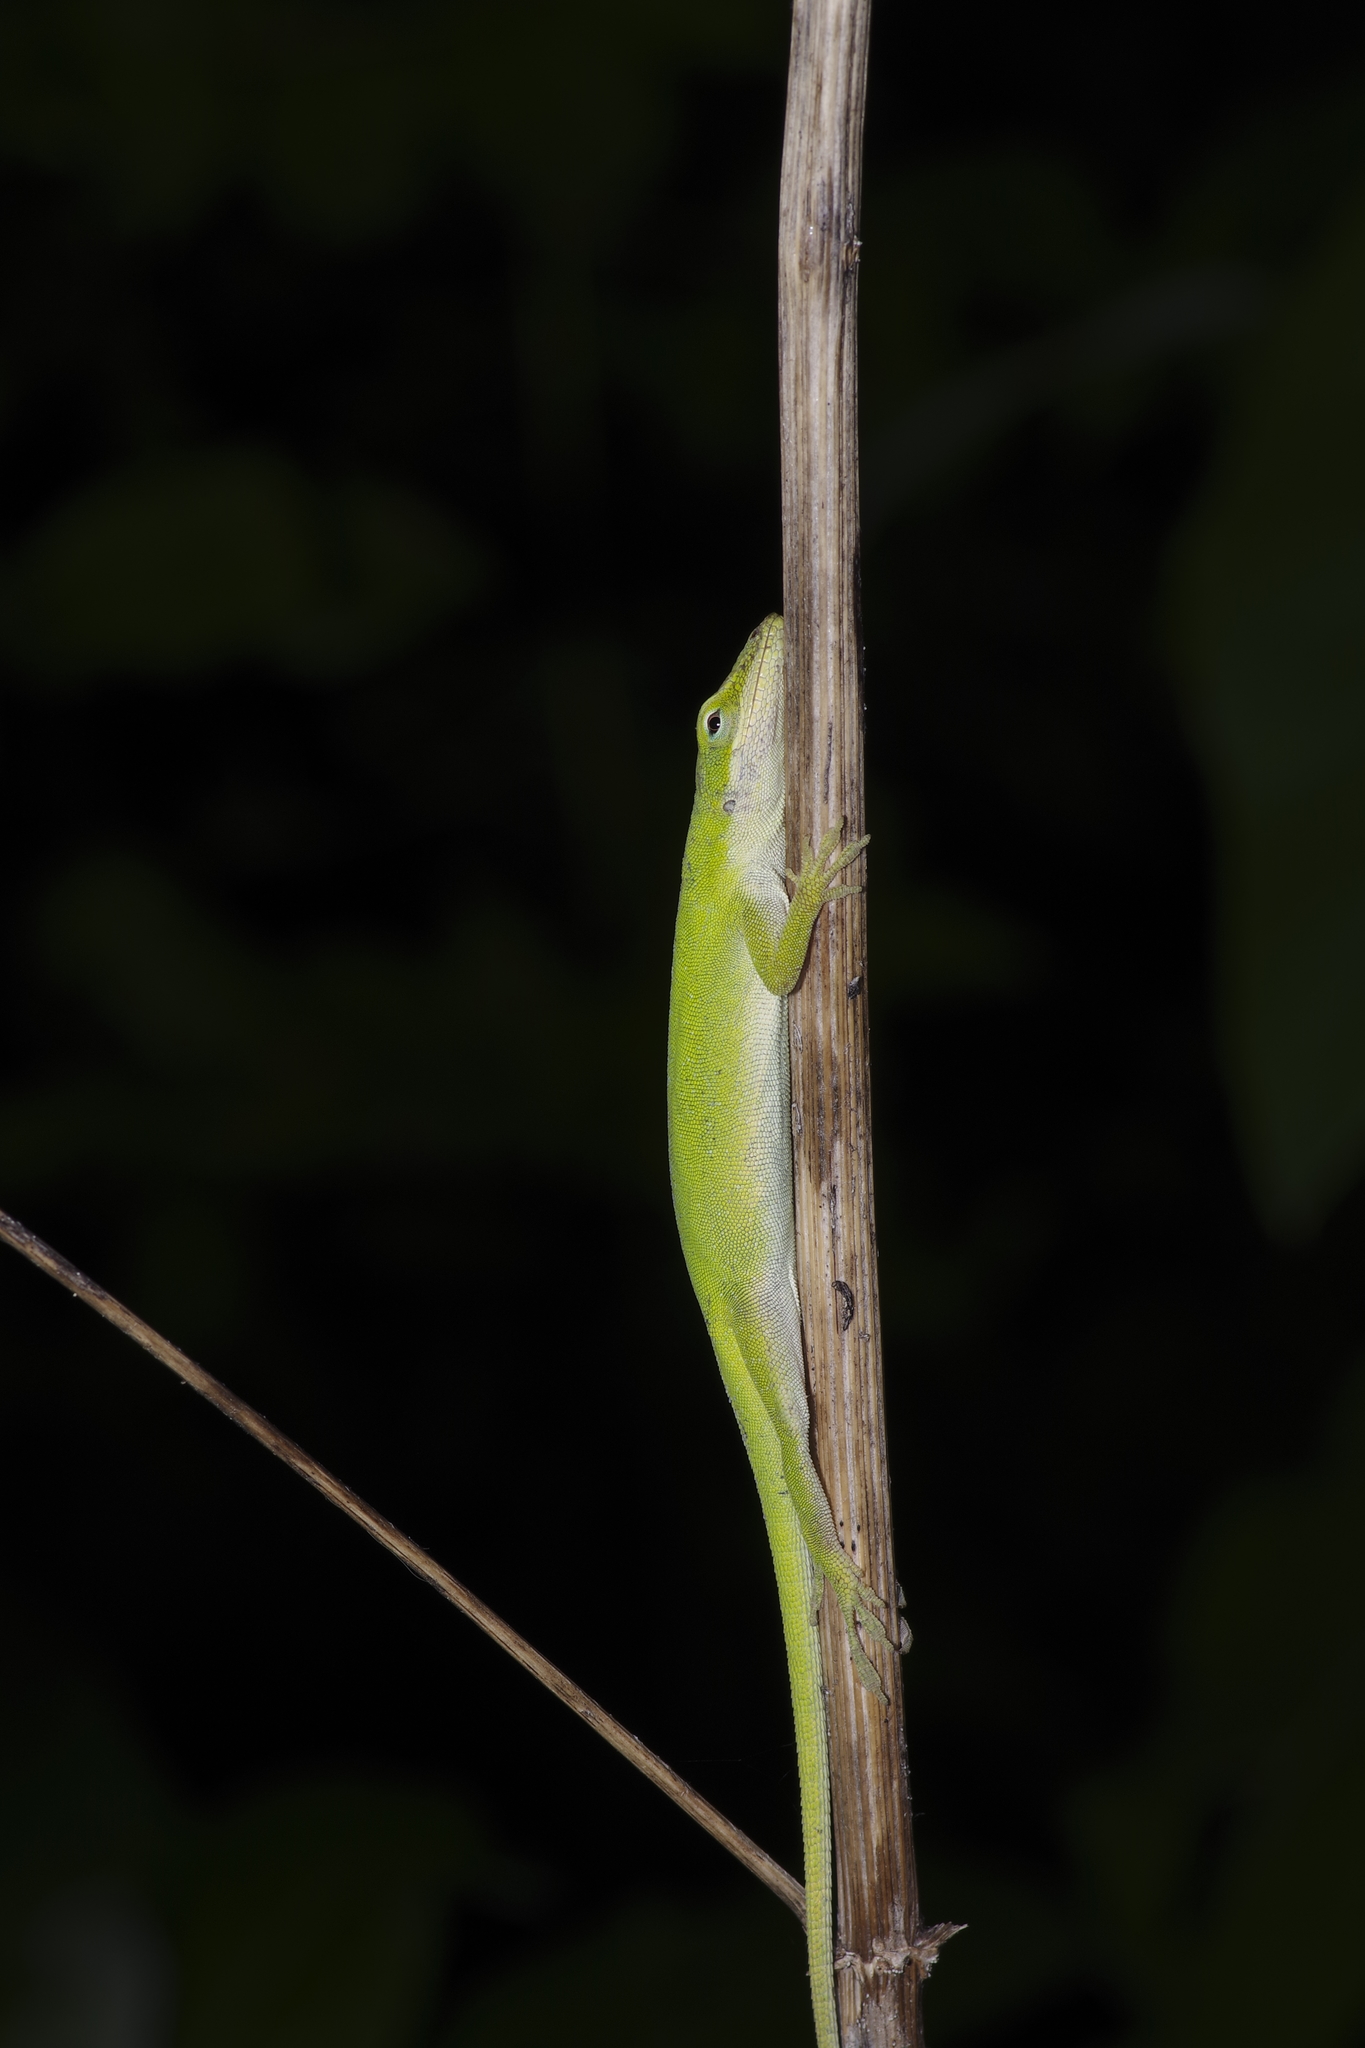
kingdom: Animalia
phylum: Chordata
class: Squamata
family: Dactyloidae
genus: Anolis
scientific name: Anolis carolinensis
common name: Green anole
